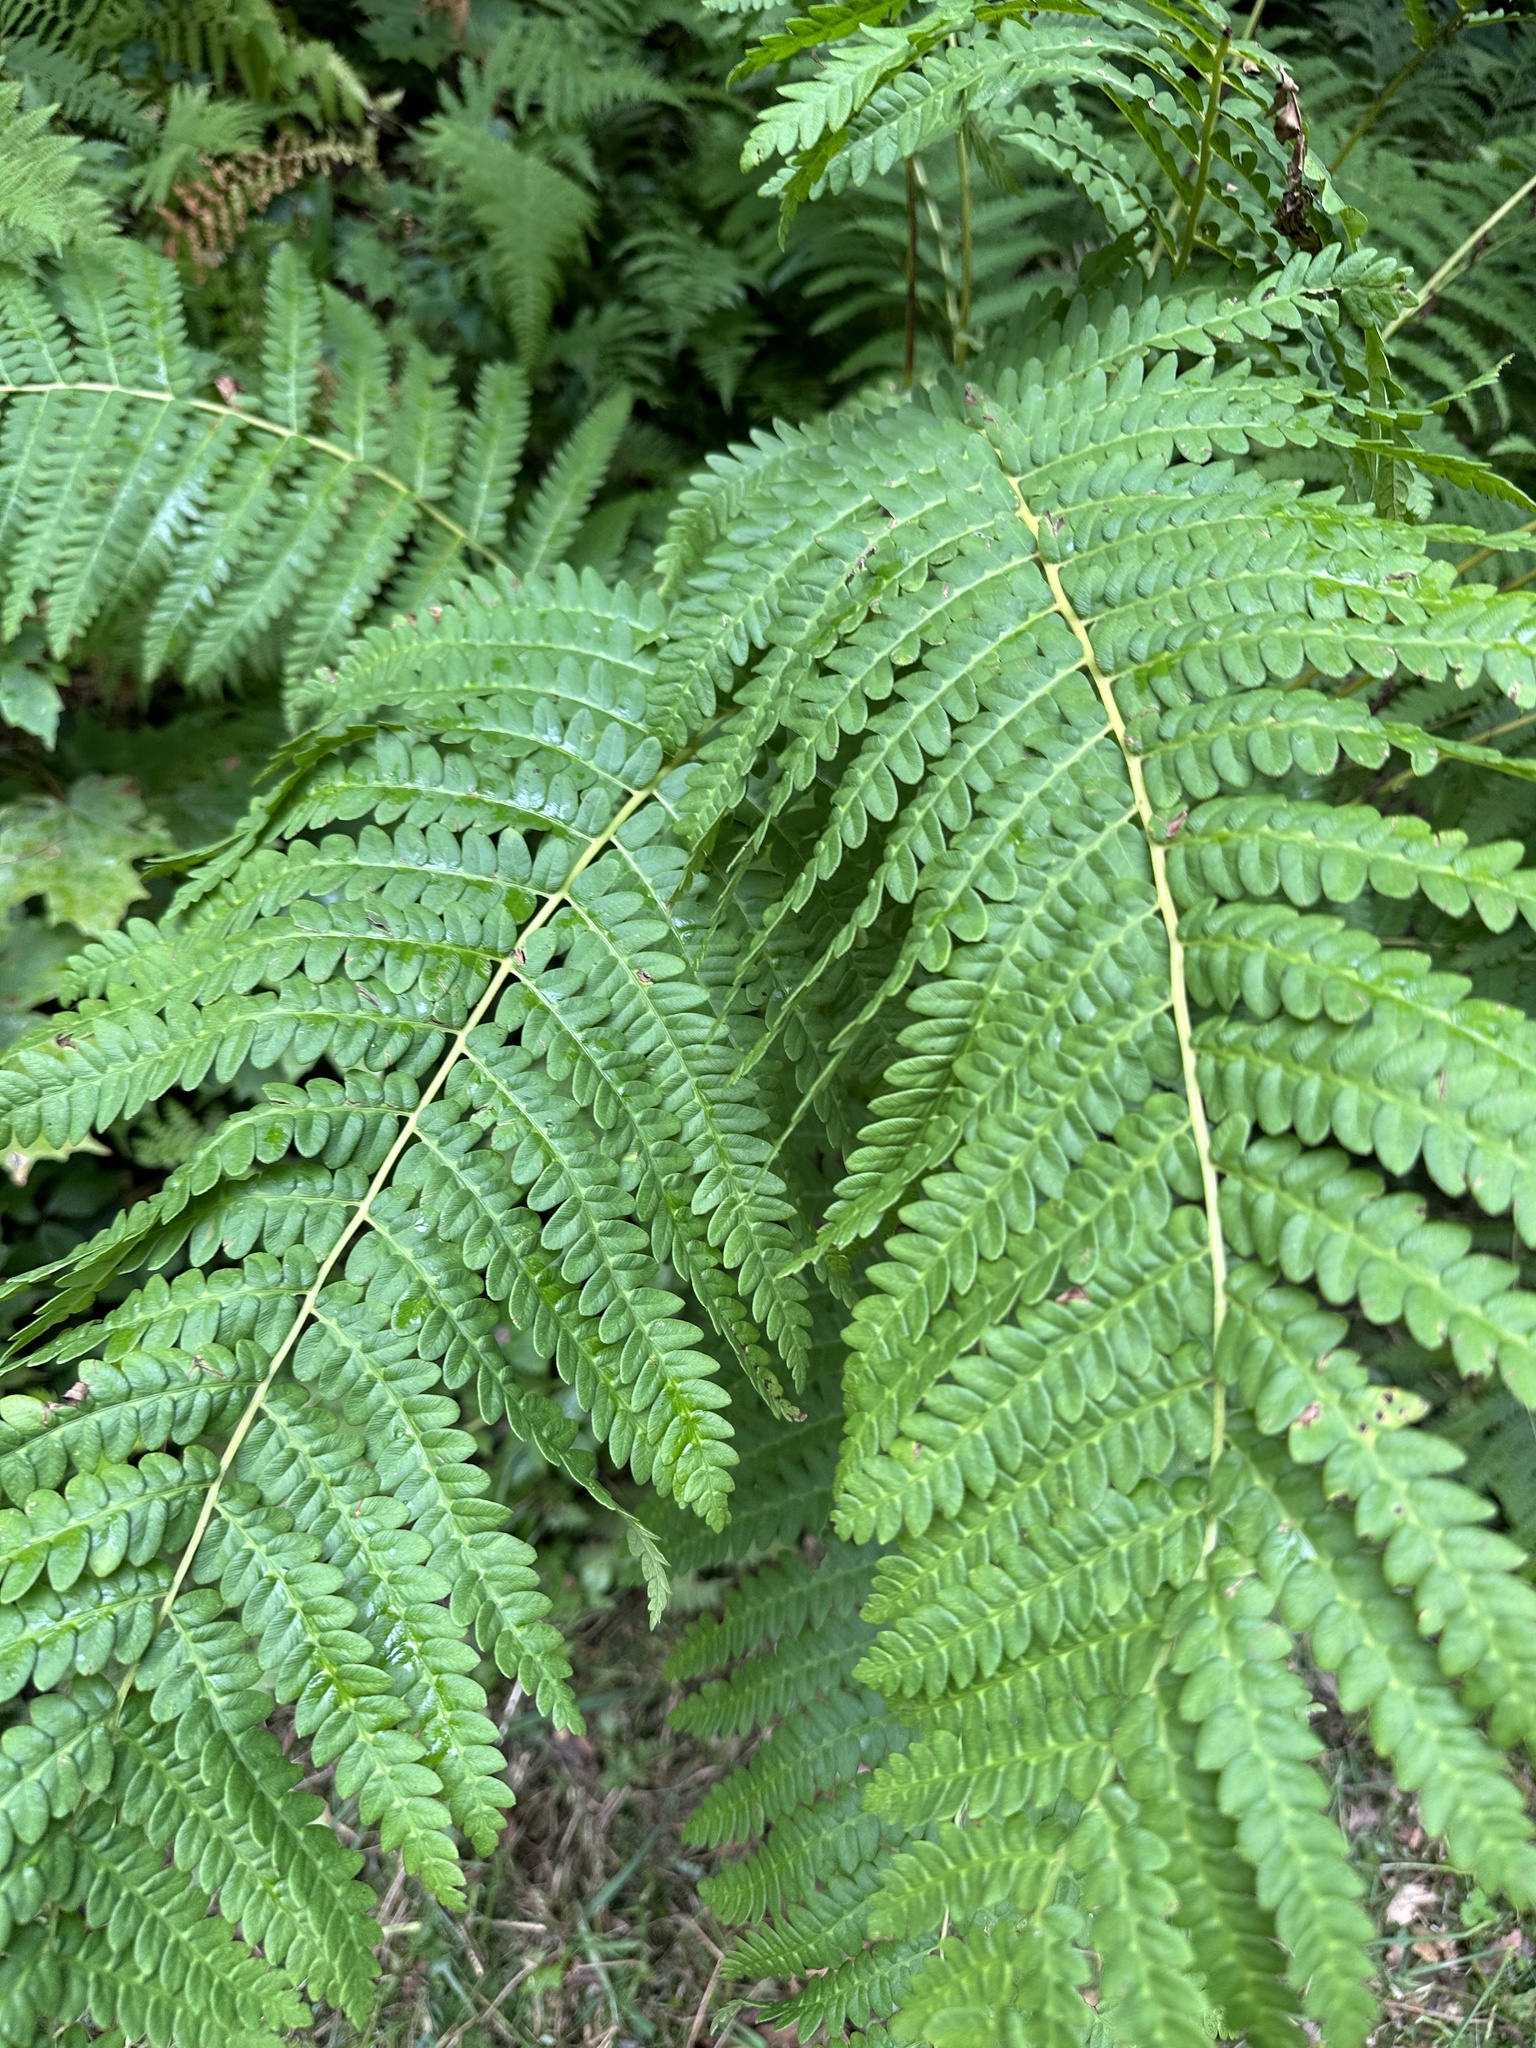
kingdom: Plantae
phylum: Tracheophyta
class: Polypodiopsida
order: Osmundales
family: Osmundaceae
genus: Osmundastrum
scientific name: Osmundastrum cinnamomeum
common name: Cinnamon fern
